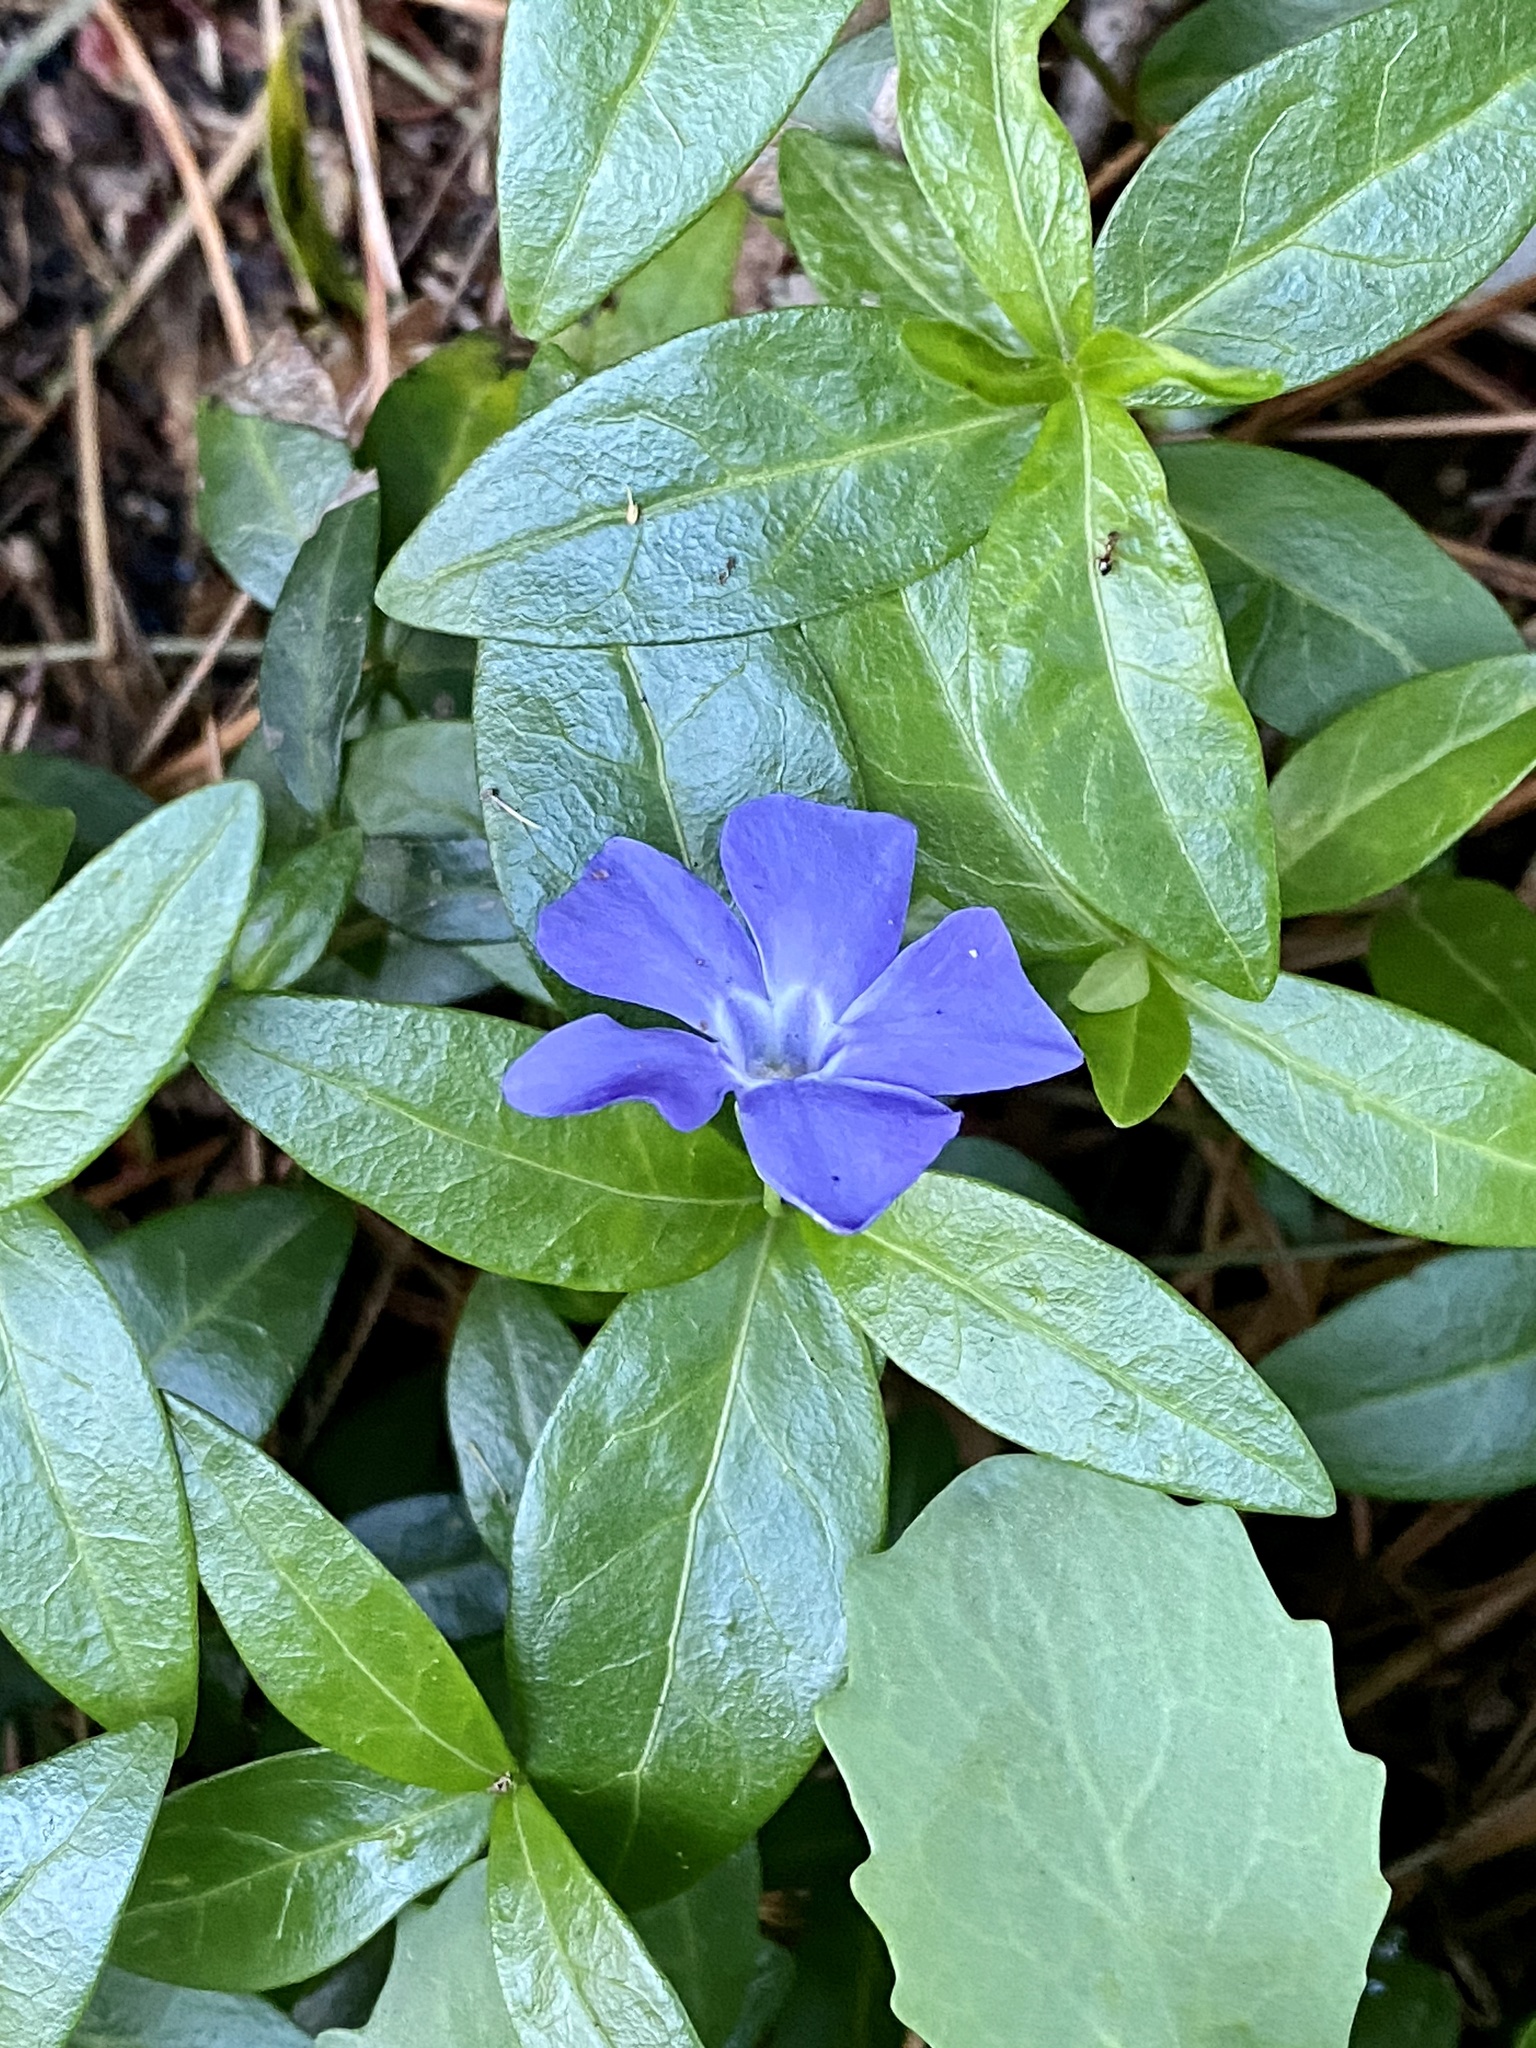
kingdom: Plantae
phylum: Tracheophyta
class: Magnoliopsida
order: Gentianales
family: Apocynaceae
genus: Vinca
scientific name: Vinca minor
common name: Lesser periwinkle
